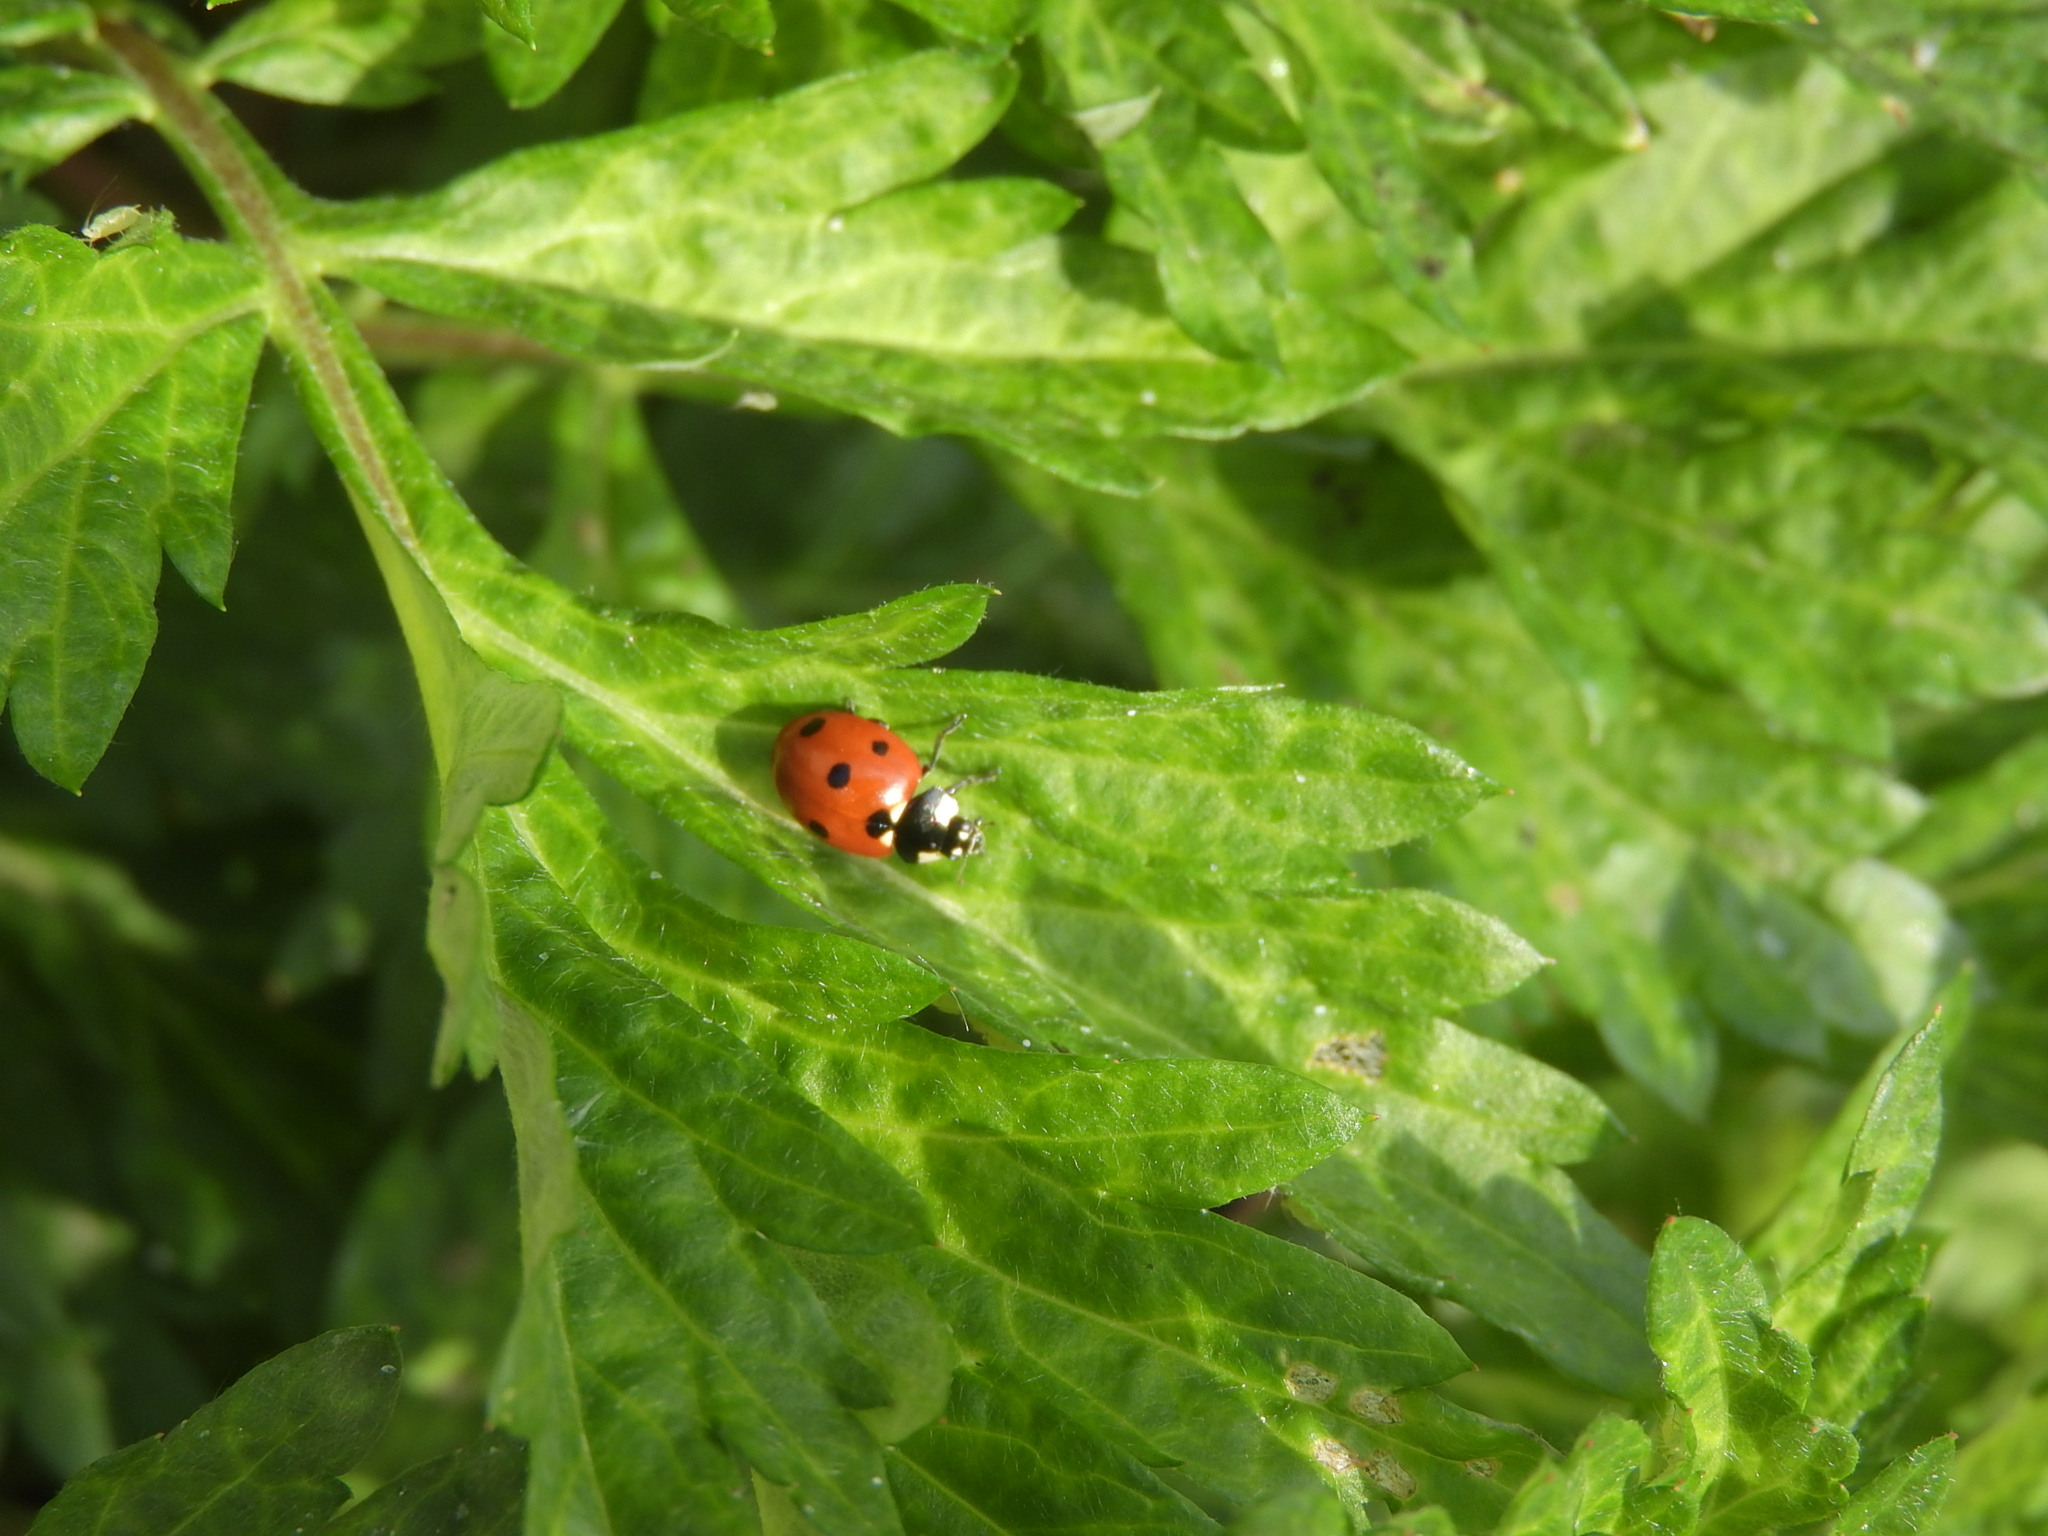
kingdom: Animalia
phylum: Arthropoda
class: Insecta
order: Coleoptera
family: Coccinellidae
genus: Coccinella
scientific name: Coccinella septempunctata
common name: Sevenspotted lady beetle
